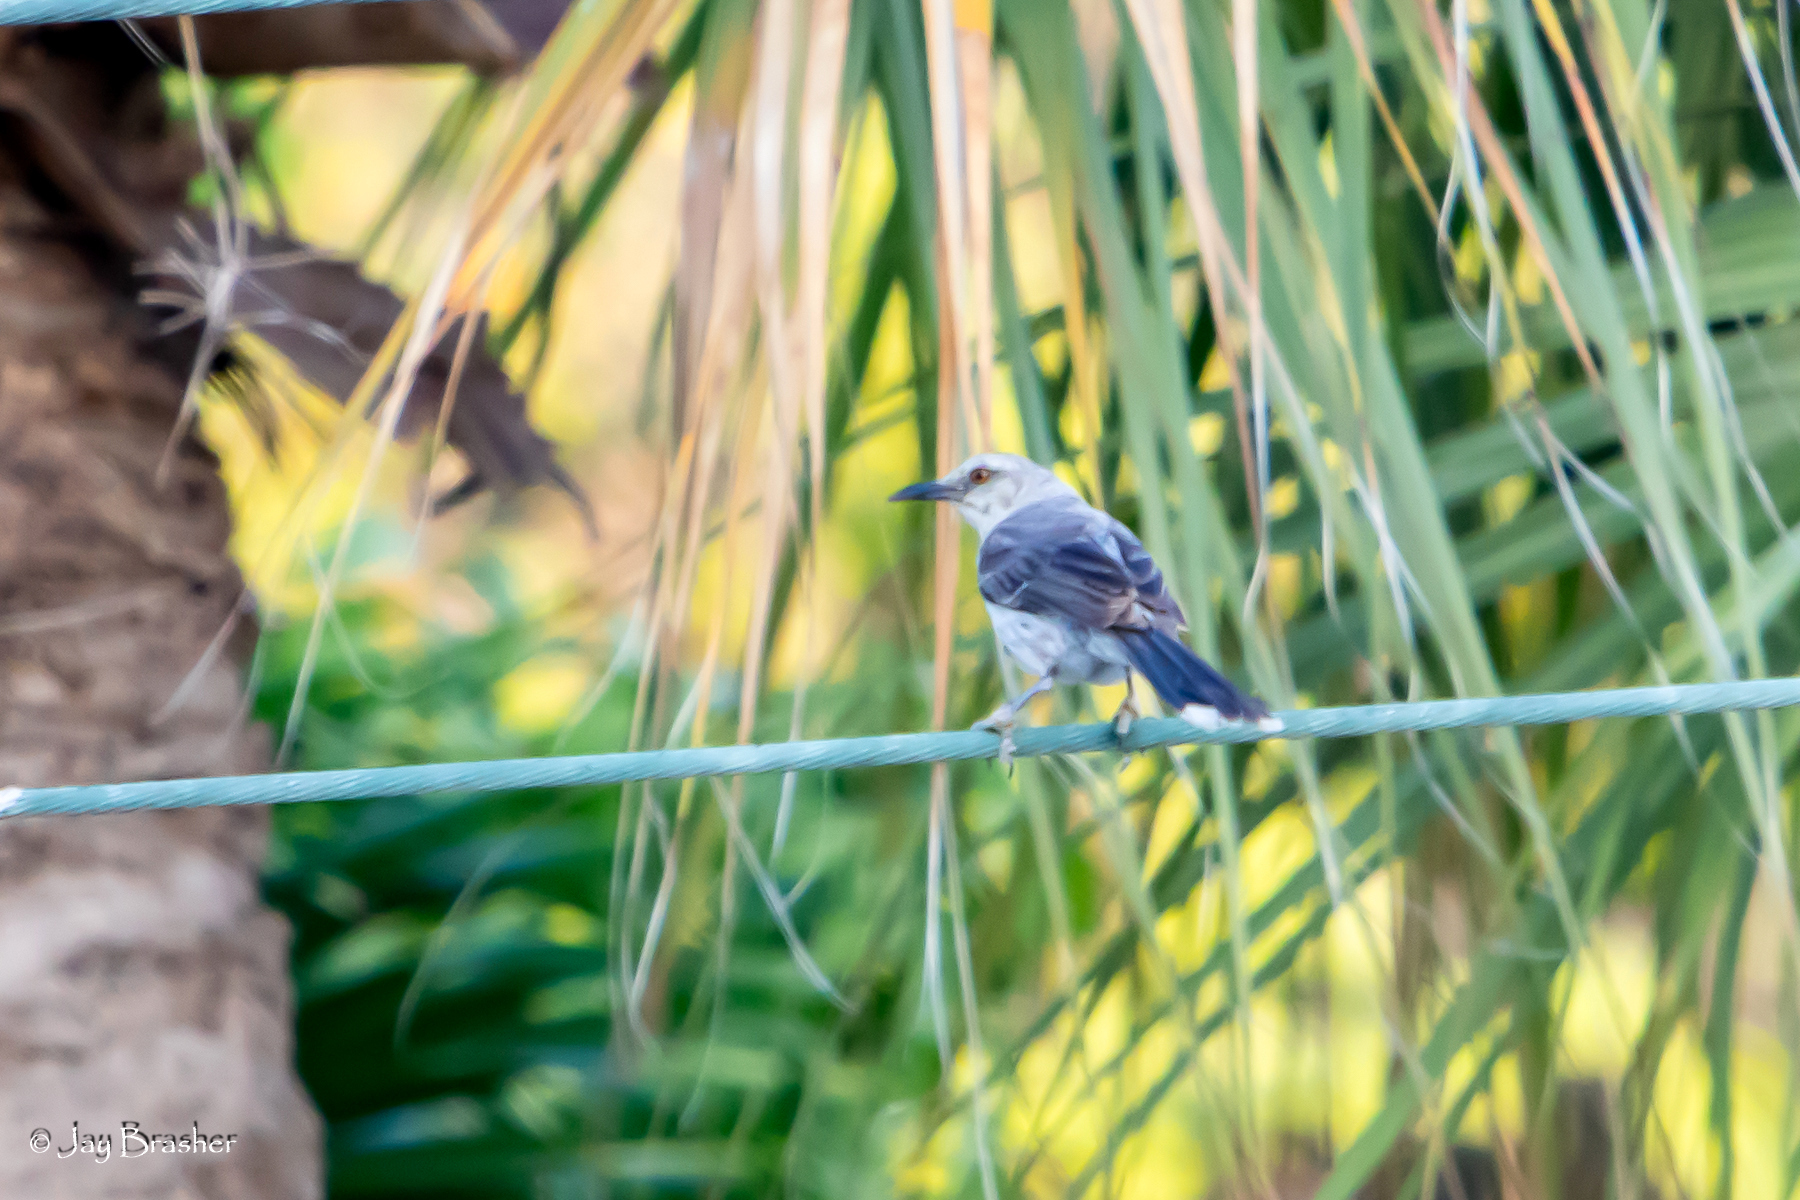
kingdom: Animalia
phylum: Chordata
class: Aves
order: Passeriformes
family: Mimidae
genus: Mimus
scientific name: Mimus gilvus
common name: Tropical mockingbird
